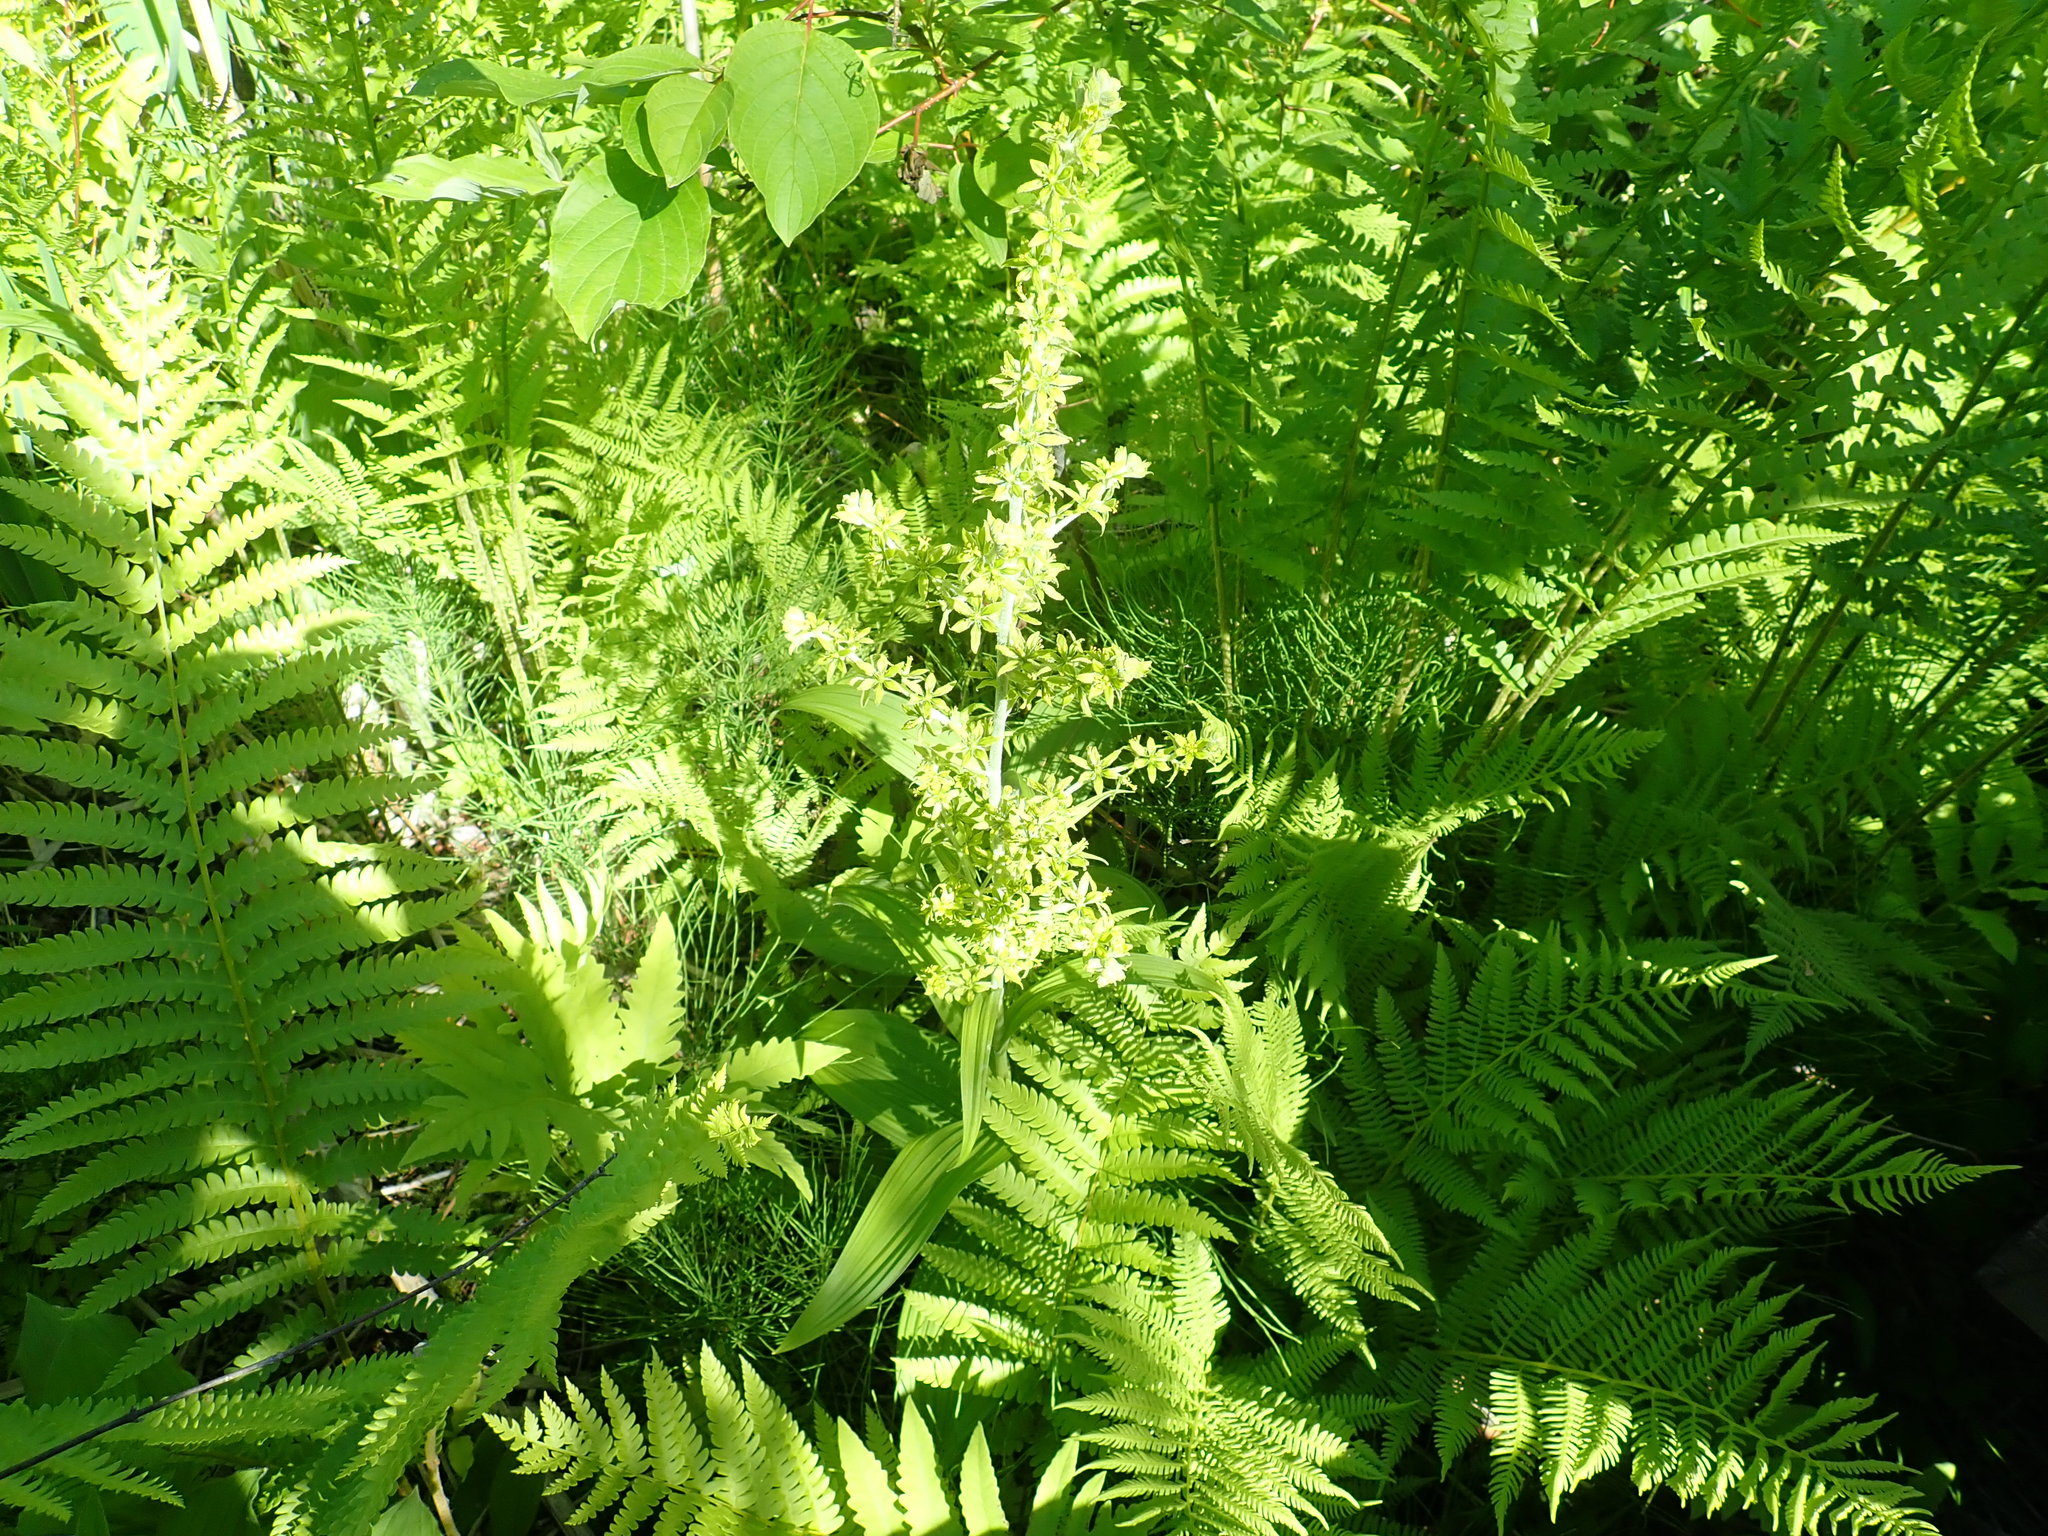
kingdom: Plantae
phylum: Tracheophyta
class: Liliopsida
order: Liliales
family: Melanthiaceae
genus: Veratrum
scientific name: Veratrum viride
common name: American false hellebore
